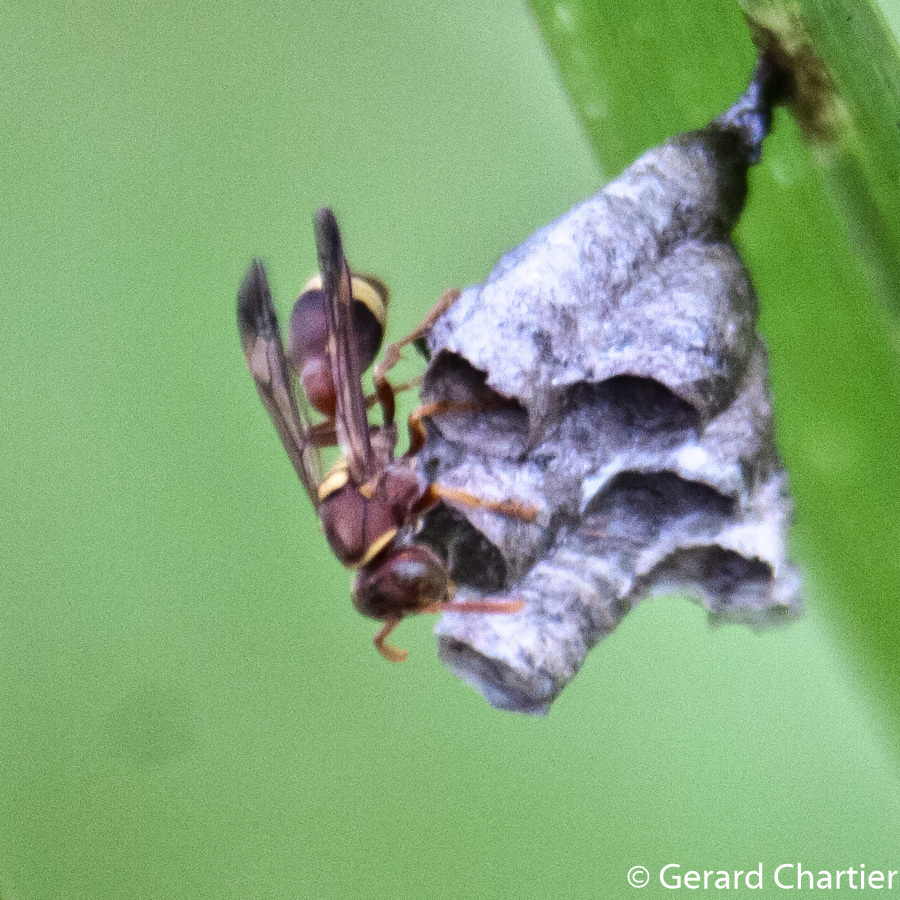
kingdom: Animalia
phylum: Arthropoda
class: Insecta
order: Hymenoptera
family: Vespidae
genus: Ropalidia
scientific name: Ropalidia fasciata
